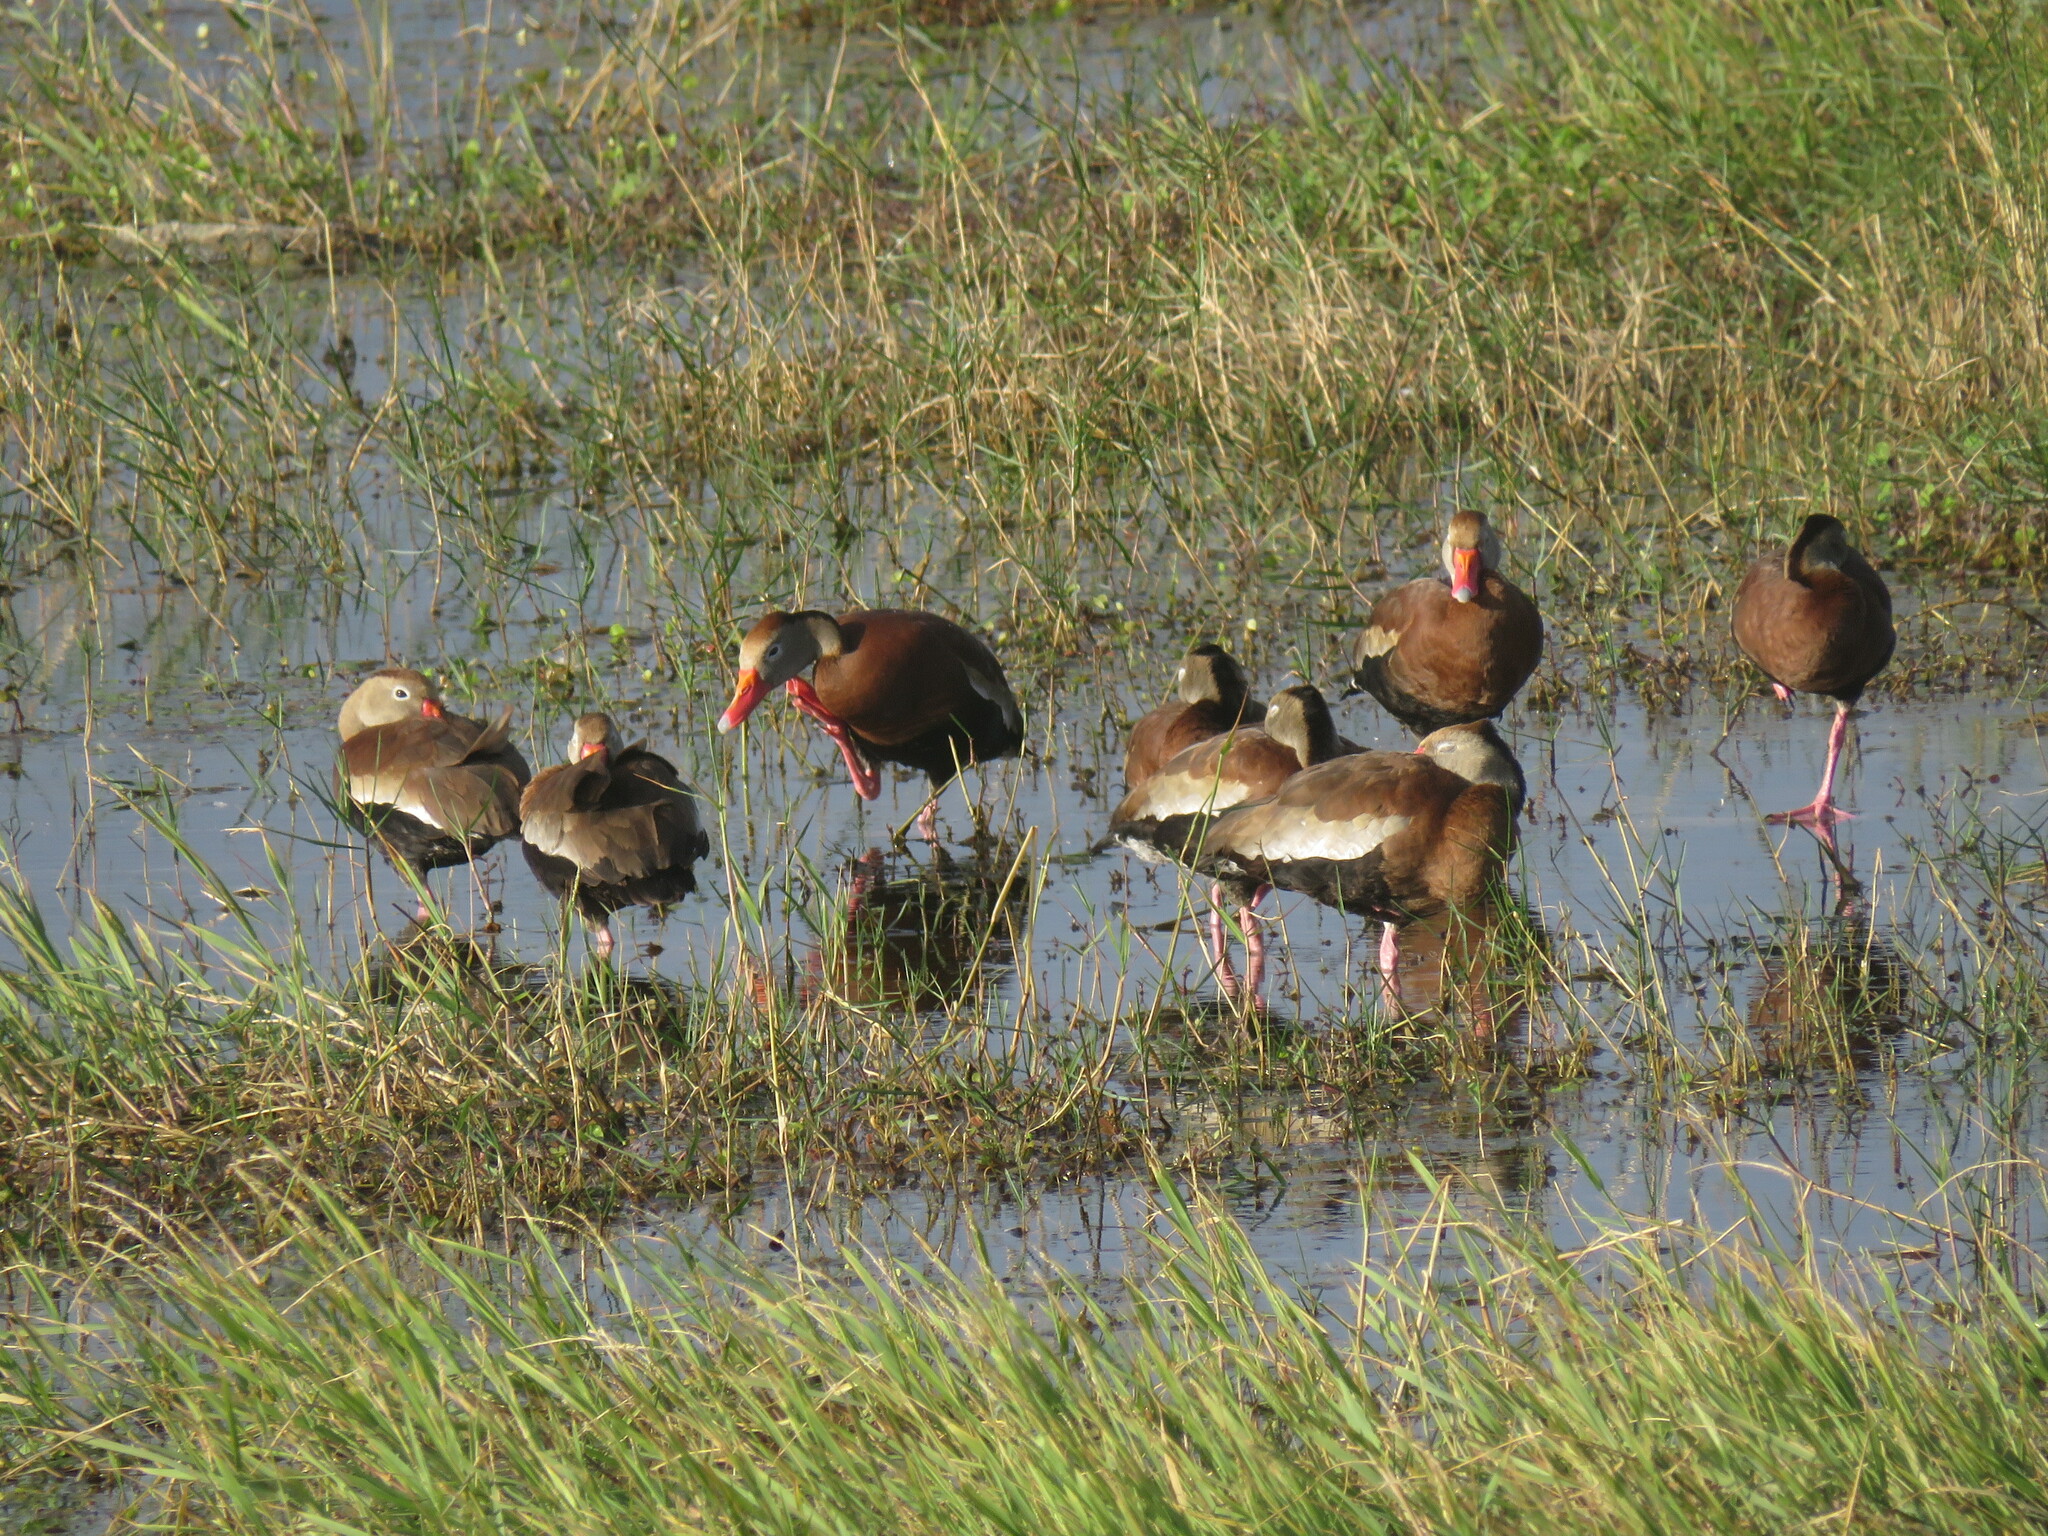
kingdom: Animalia
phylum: Chordata
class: Aves
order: Anseriformes
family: Anatidae
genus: Dendrocygna
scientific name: Dendrocygna autumnalis
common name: Black-bellied whistling duck
